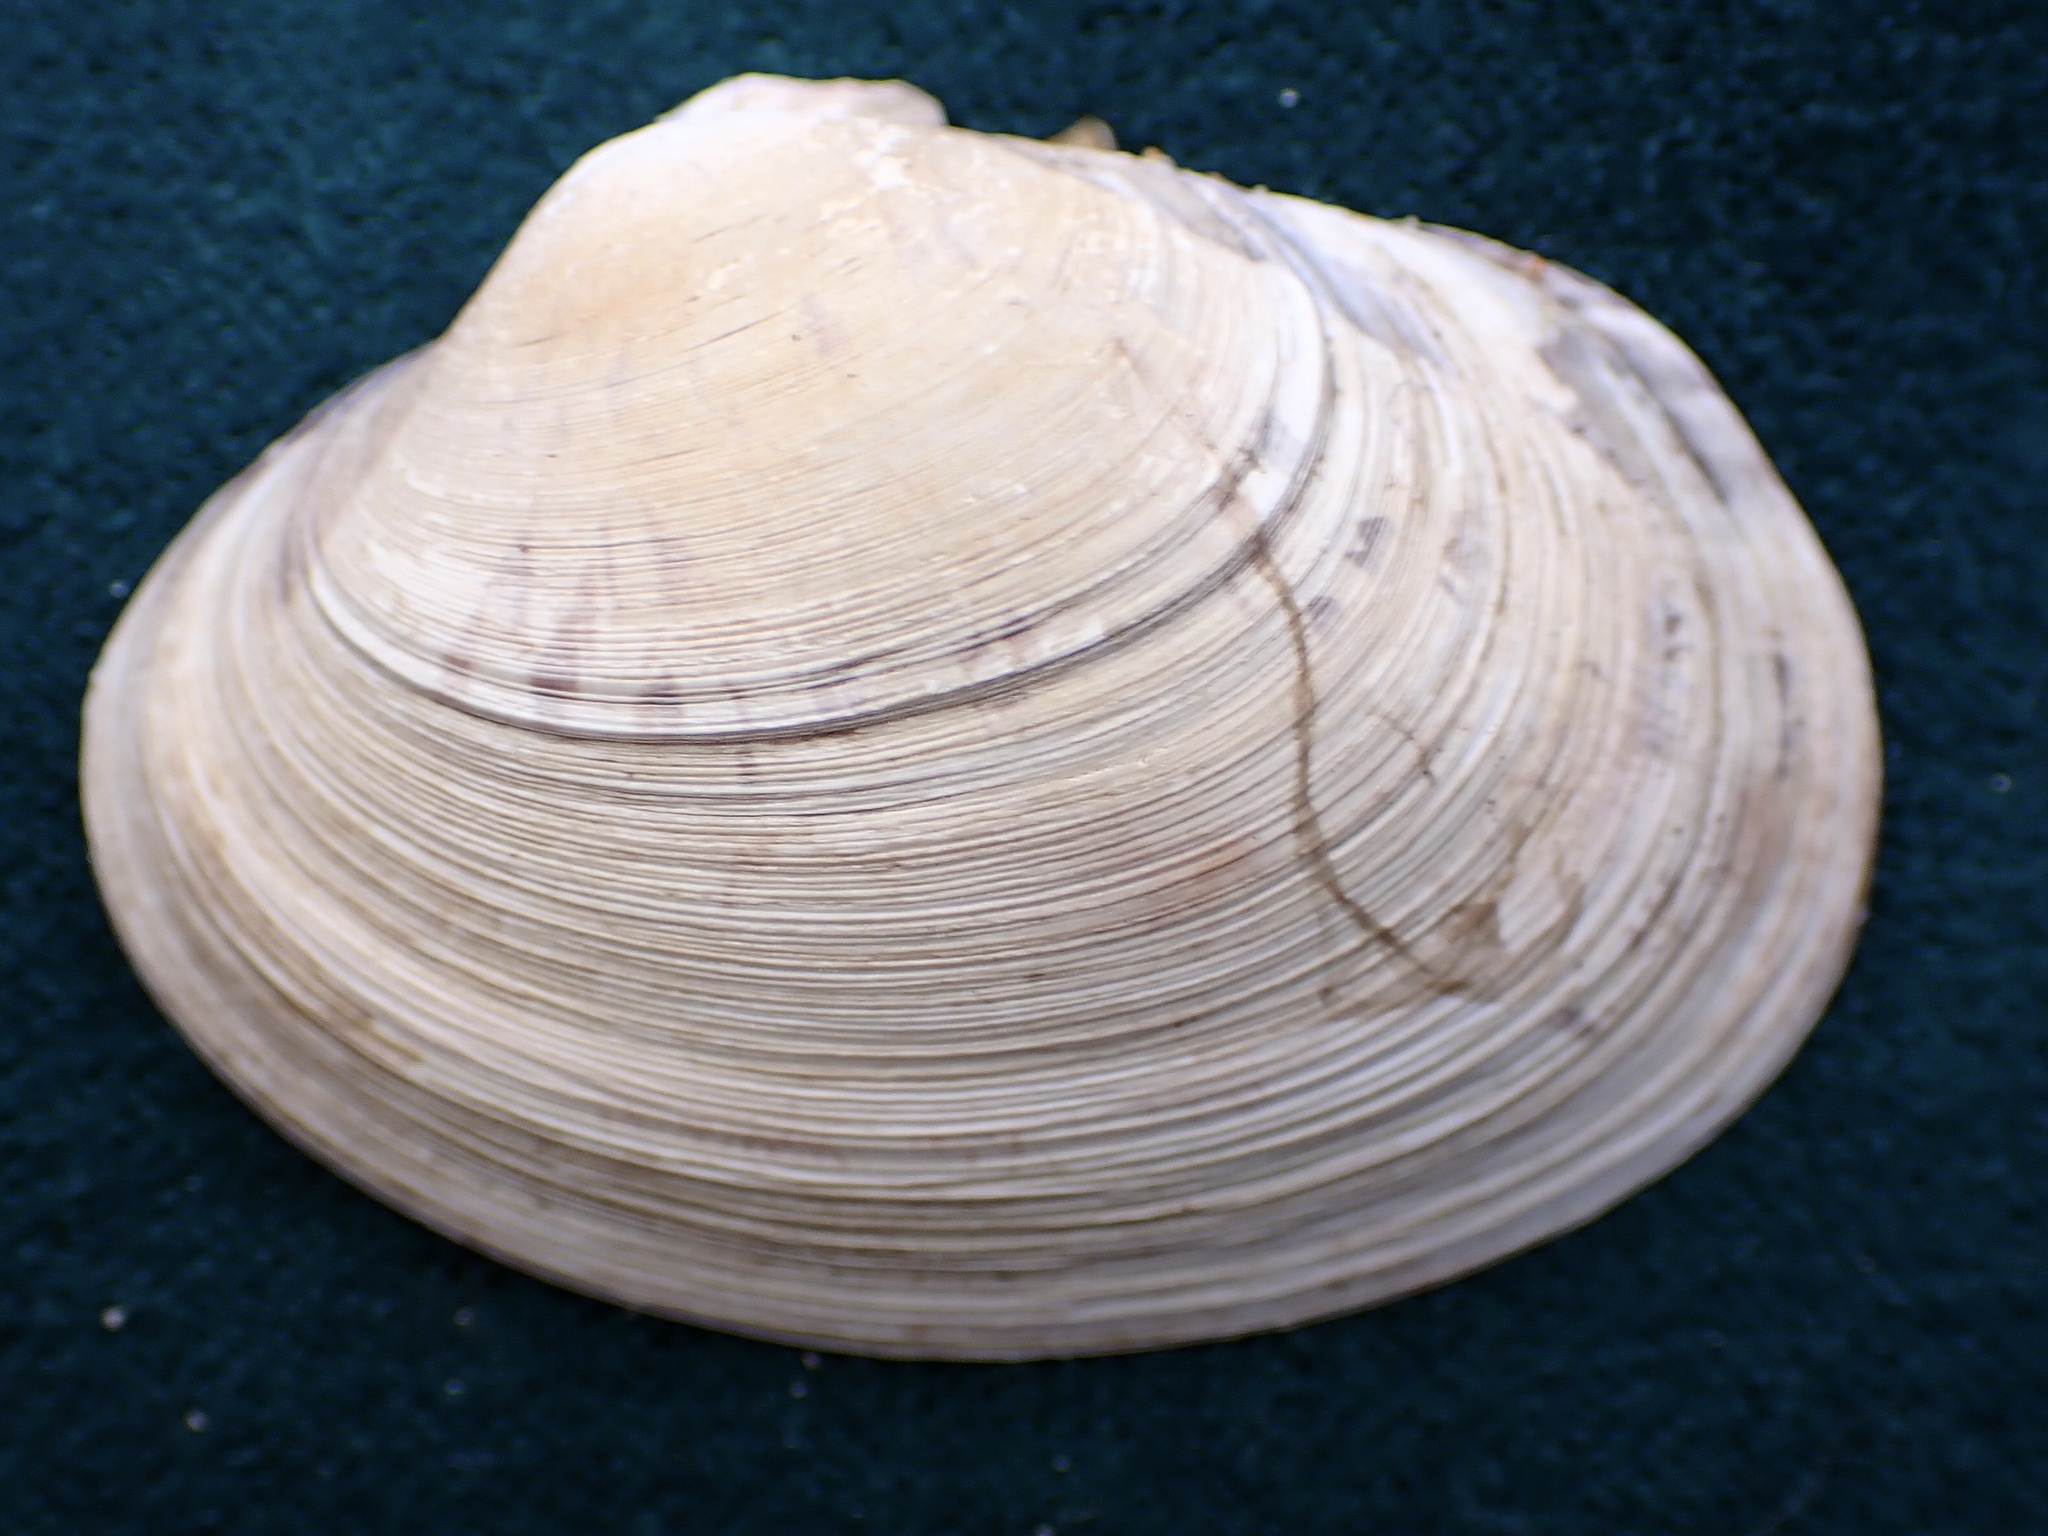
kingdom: Animalia
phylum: Mollusca
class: Bivalvia
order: Venerida
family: Veneridae
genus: Saxidomus
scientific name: Saxidomus nuttalli
